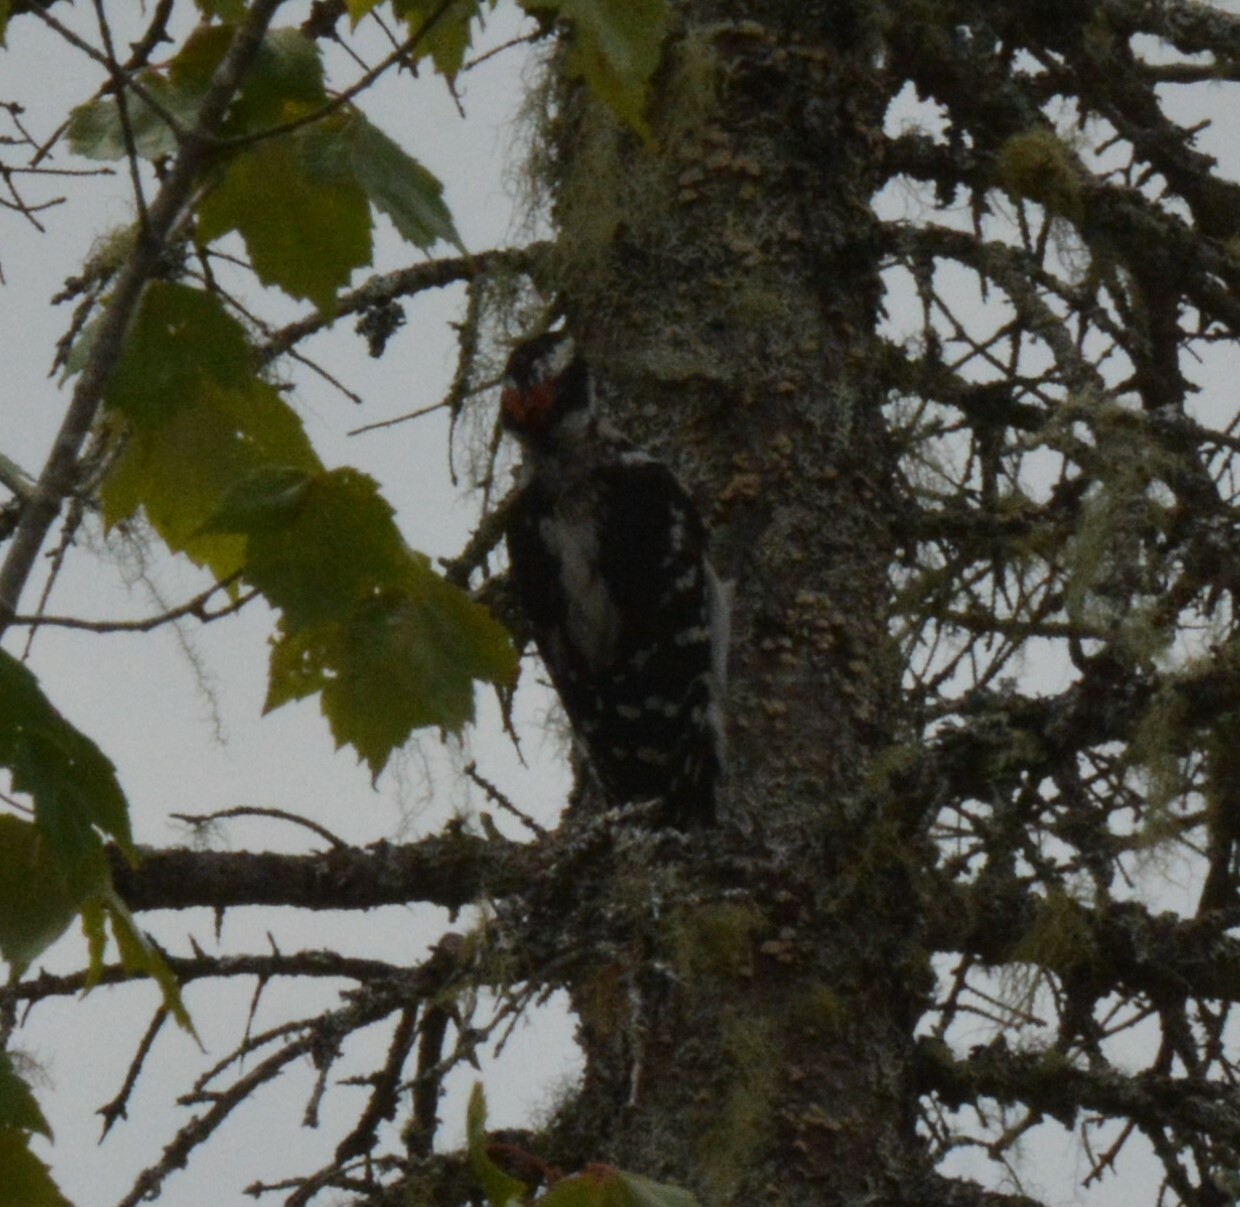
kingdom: Animalia
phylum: Chordata
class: Aves
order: Piciformes
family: Picidae
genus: Leuconotopicus
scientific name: Leuconotopicus villosus
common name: Hairy woodpecker
